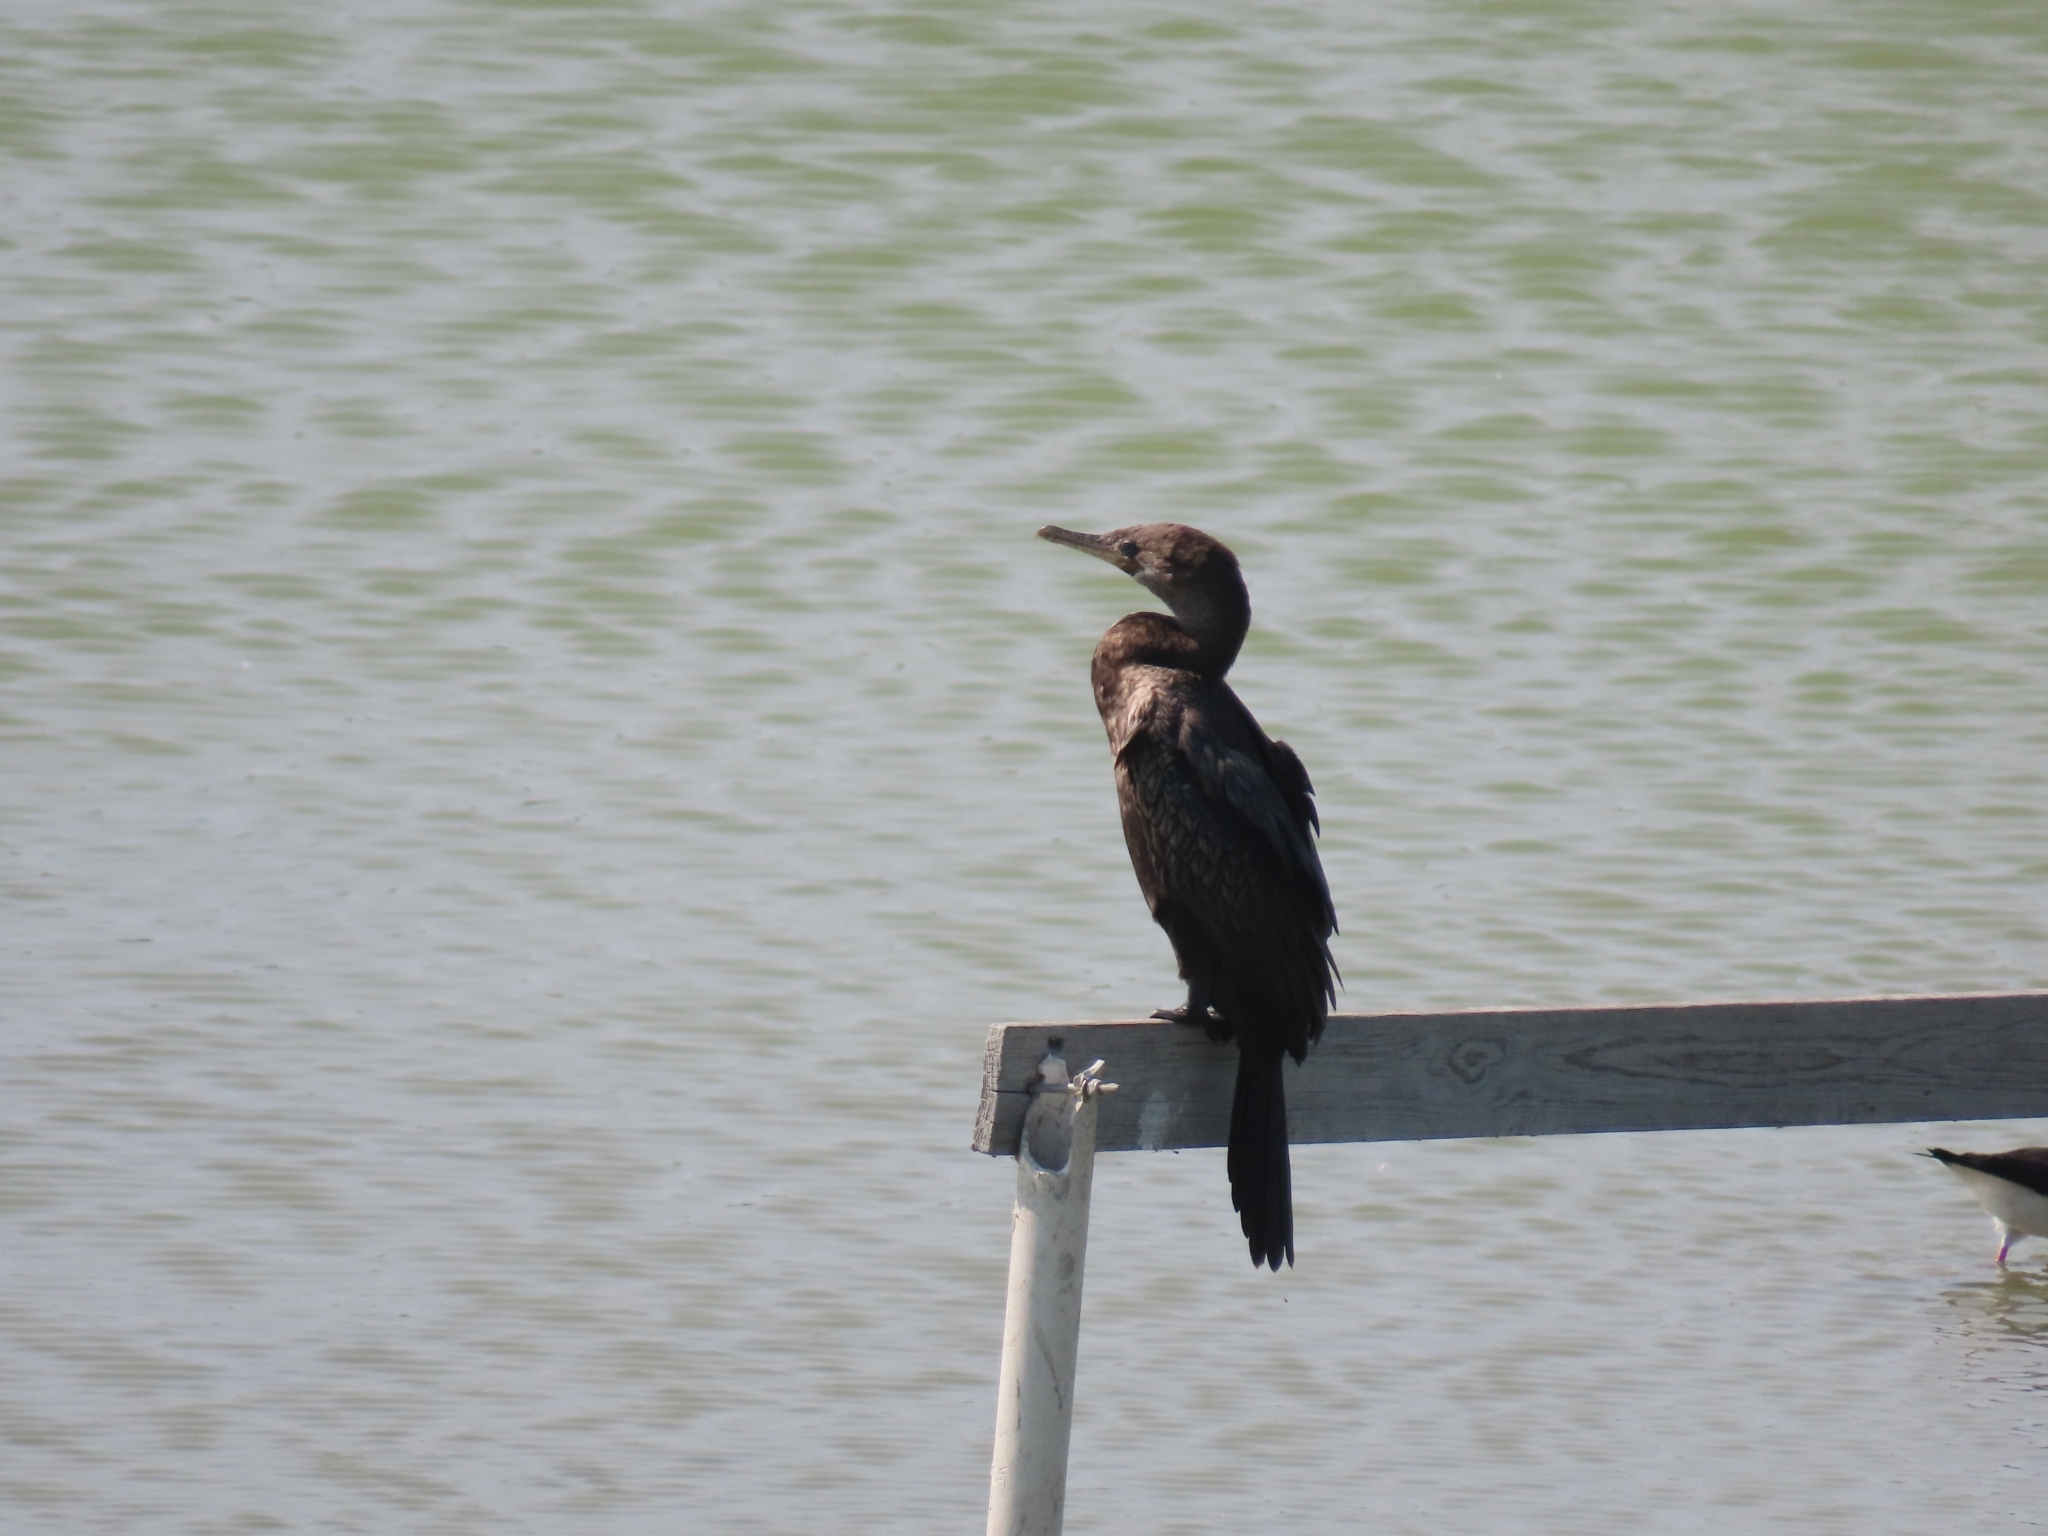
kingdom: Animalia
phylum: Chordata
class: Aves
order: Suliformes
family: Phalacrocoracidae
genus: Phalacrocorax
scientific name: Phalacrocorax brasilianus
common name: Neotropic cormorant
